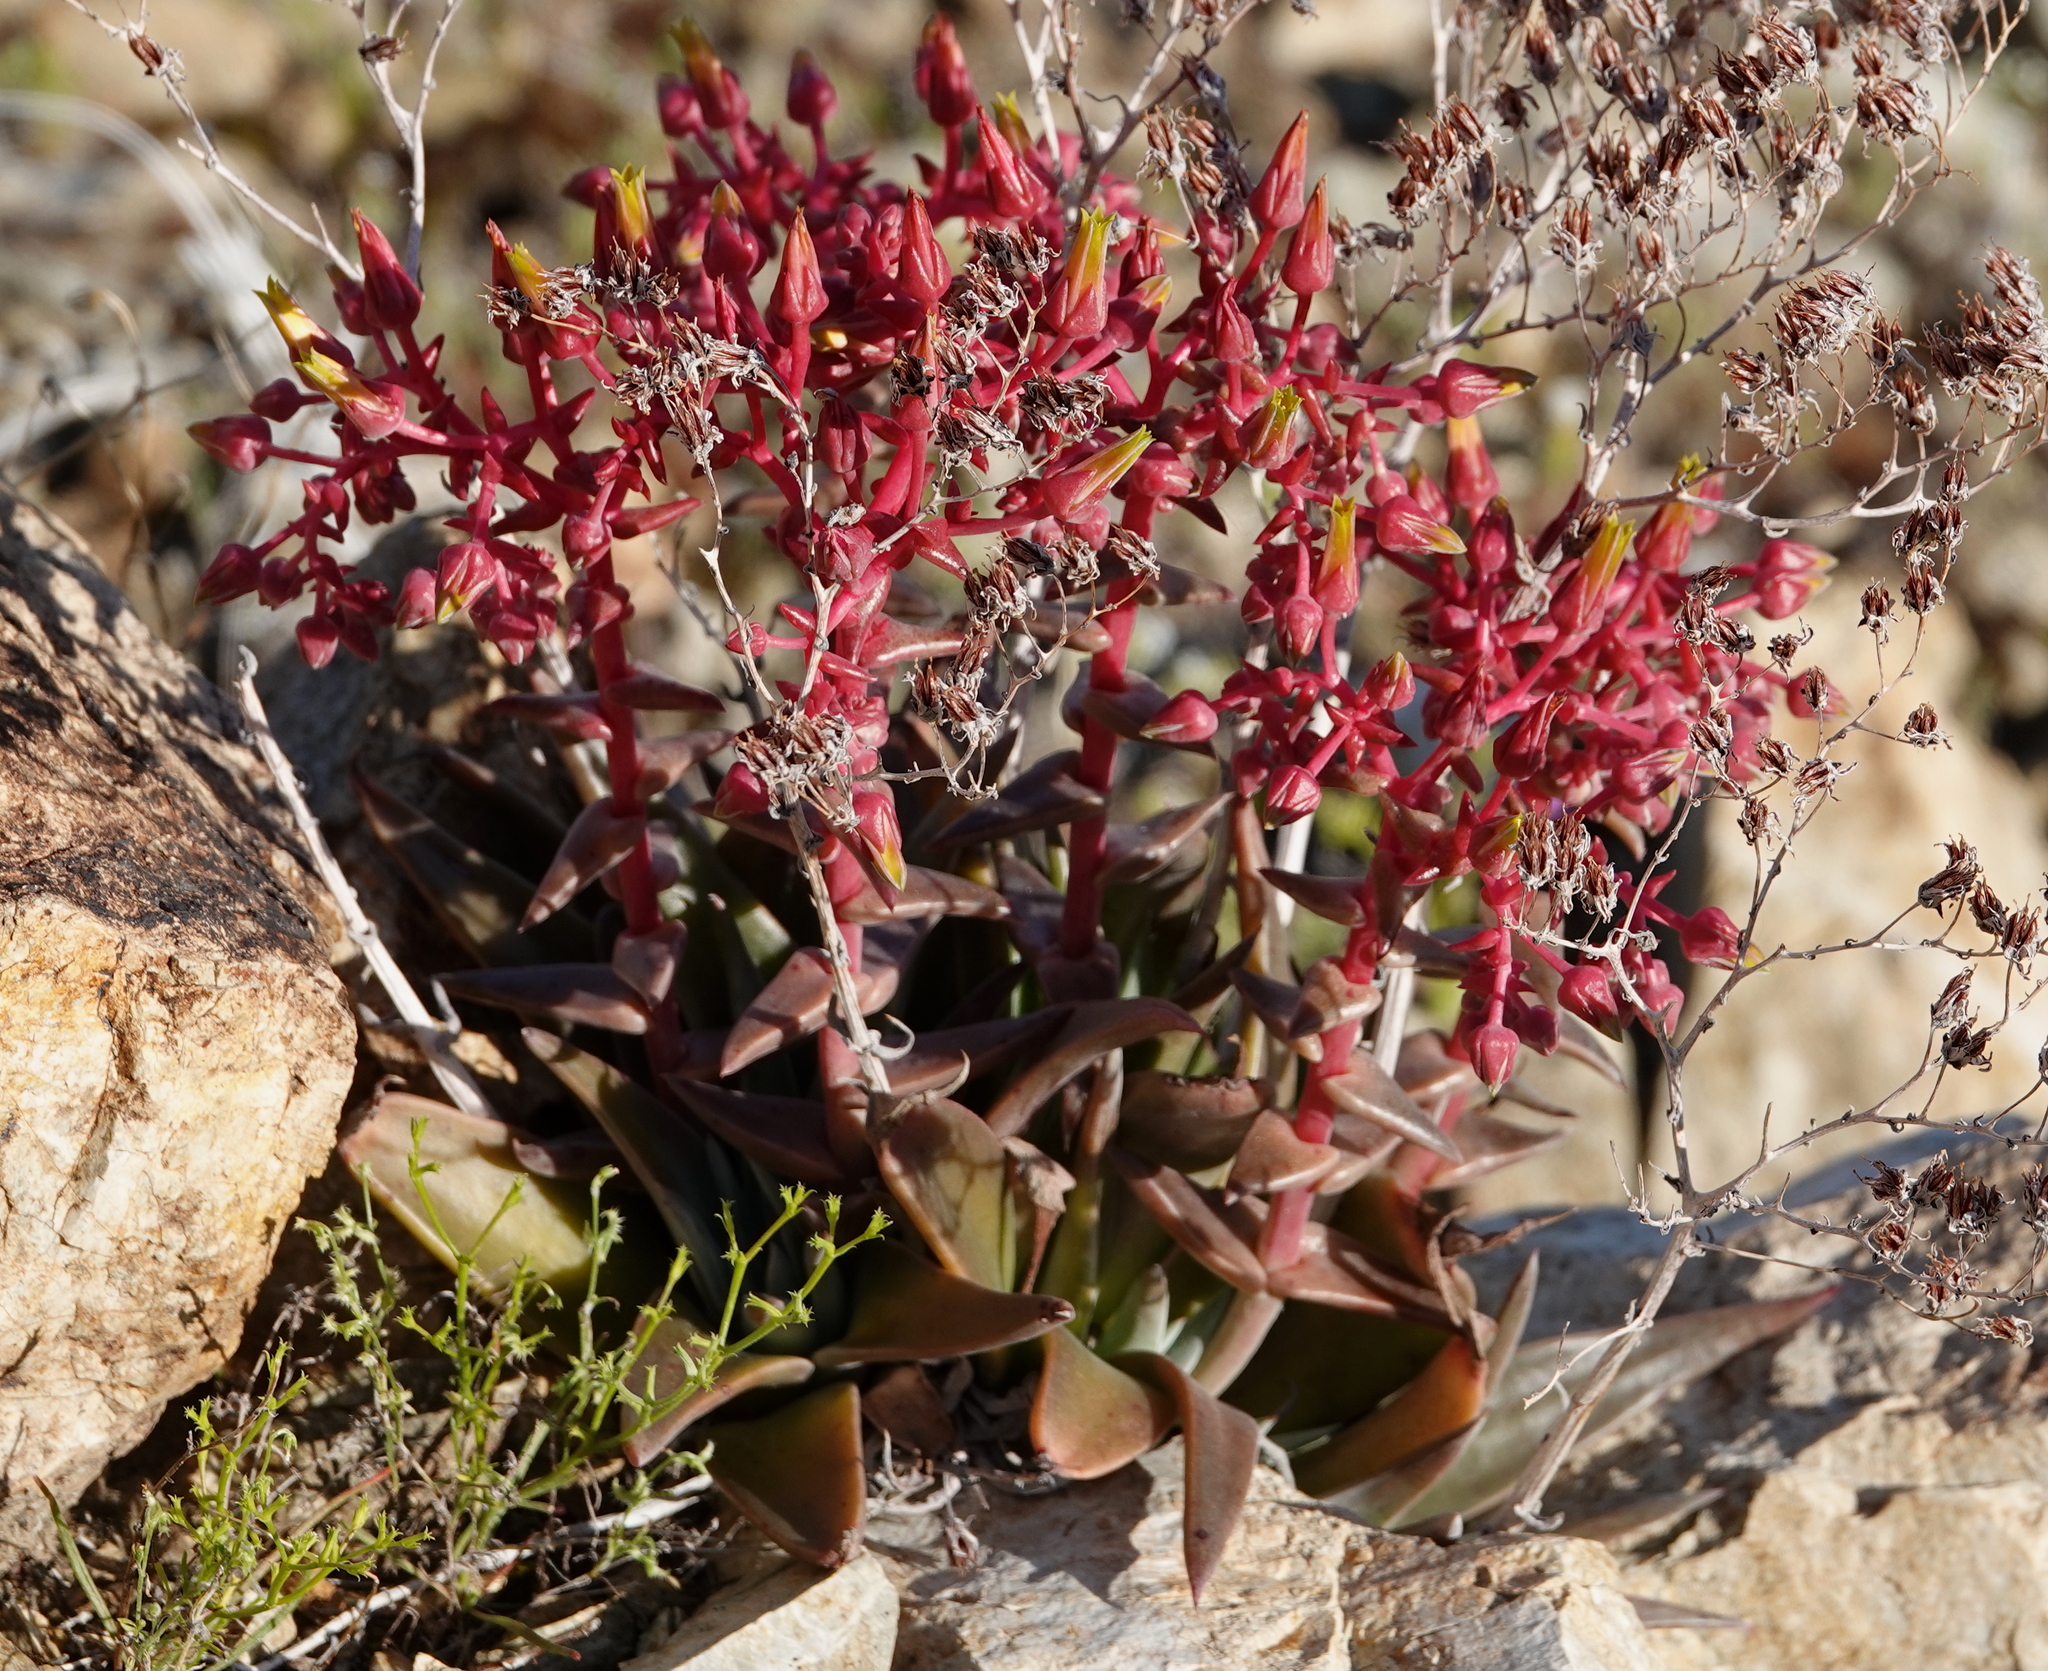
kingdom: Plantae
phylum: Tracheophyta
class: Magnoliopsida
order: Saxifragales
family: Crassulaceae
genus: Dudleya
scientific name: Dudleya saxosa
